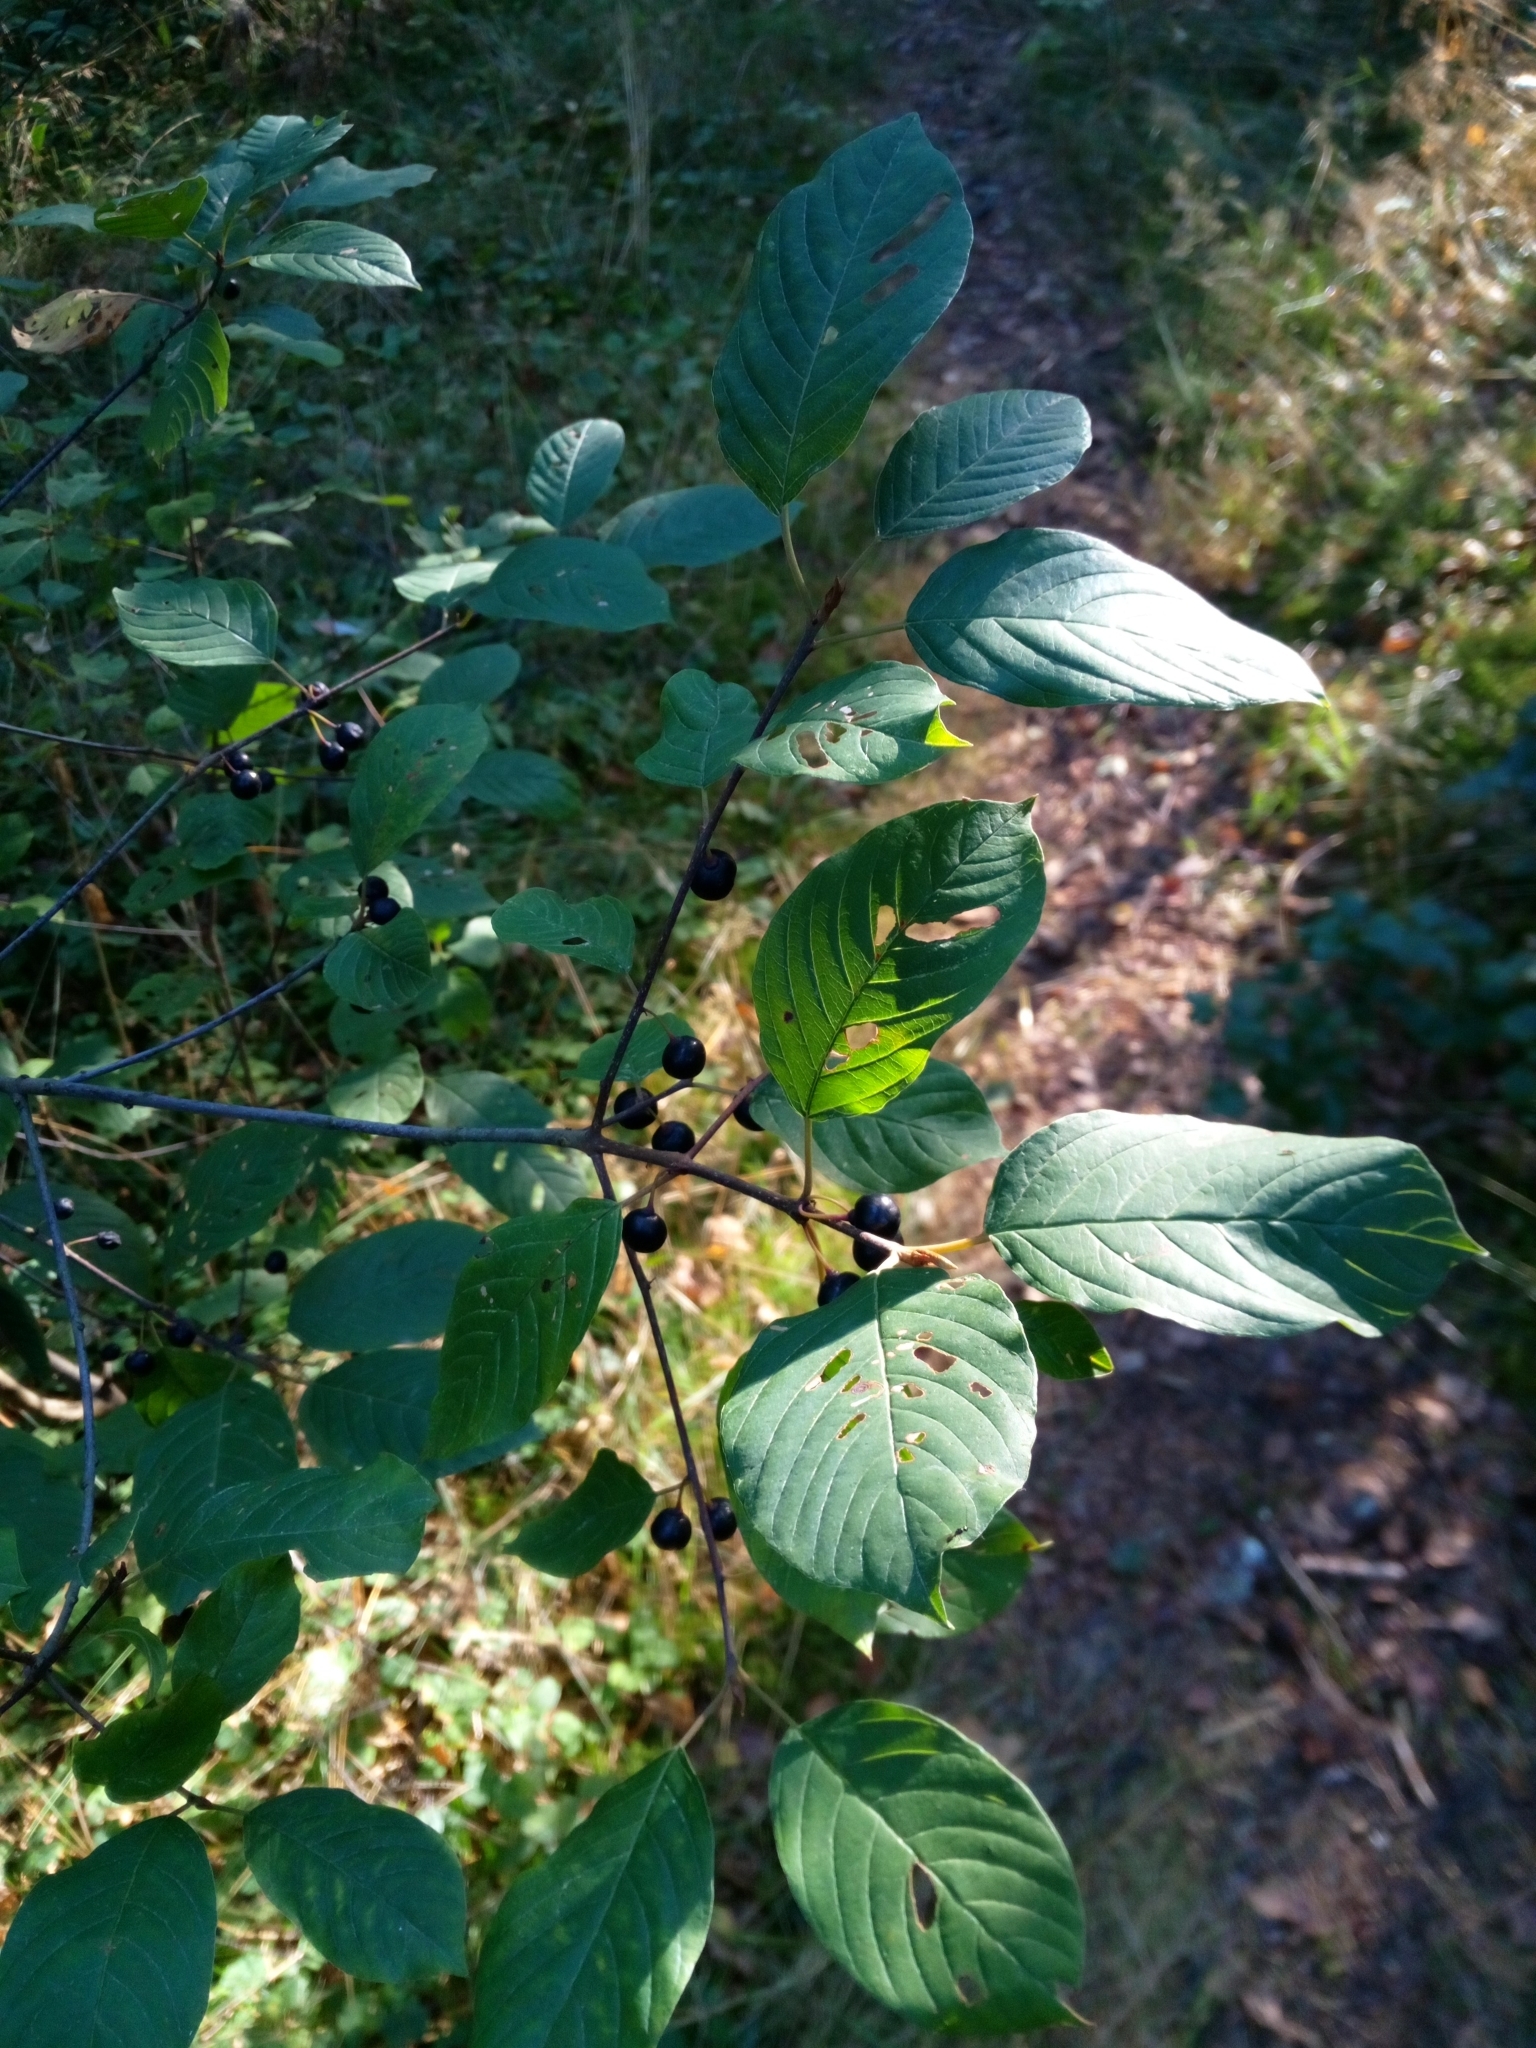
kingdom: Plantae
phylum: Tracheophyta
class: Magnoliopsida
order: Rosales
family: Rhamnaceae
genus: Frangula
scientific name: Frangula alnus
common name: Alder buckthorn
